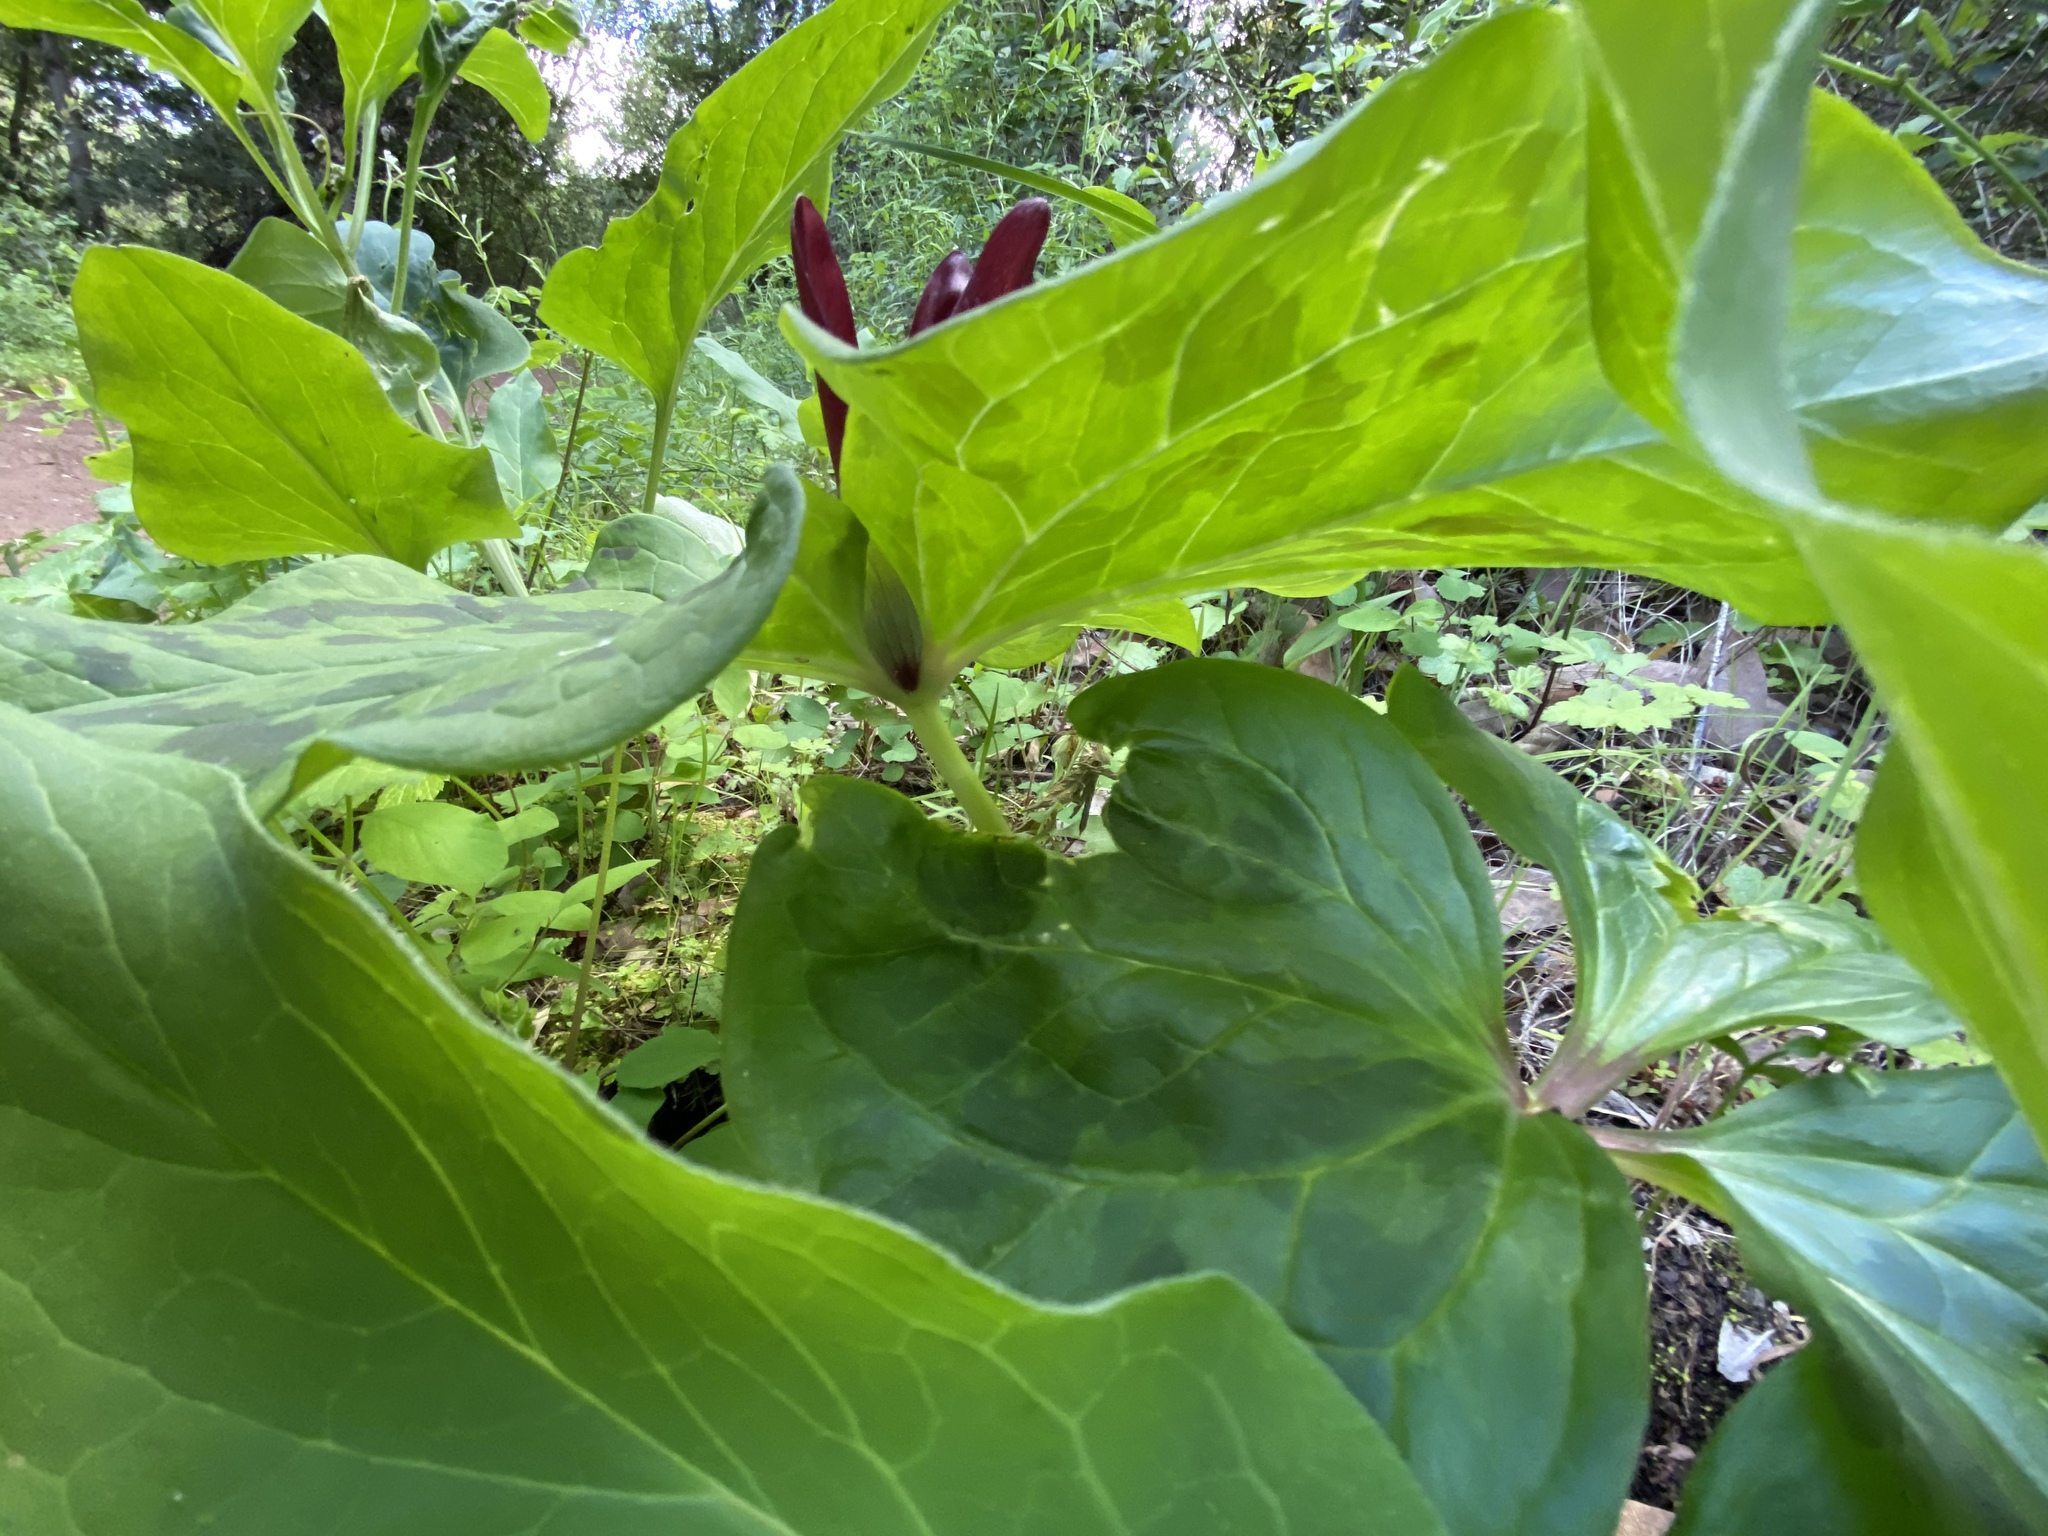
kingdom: Plantae
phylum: Tracheophyta
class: Liliopsida
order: Liliales
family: Melanthiaceae
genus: Trillium
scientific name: Trillium chloropetalum
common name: Giant trillium
